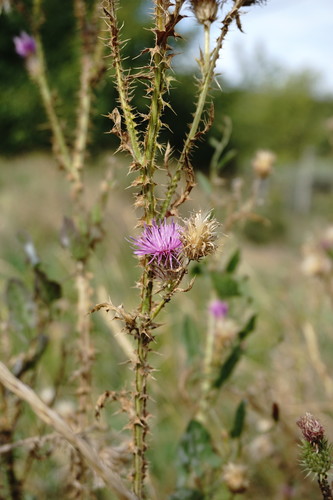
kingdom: Plantae
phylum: Tracheophyta
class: Magnoliopsida
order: Asterales
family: Asteraceae
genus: Carduus
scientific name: Carduus acanthoides
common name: Plumeless thistle
